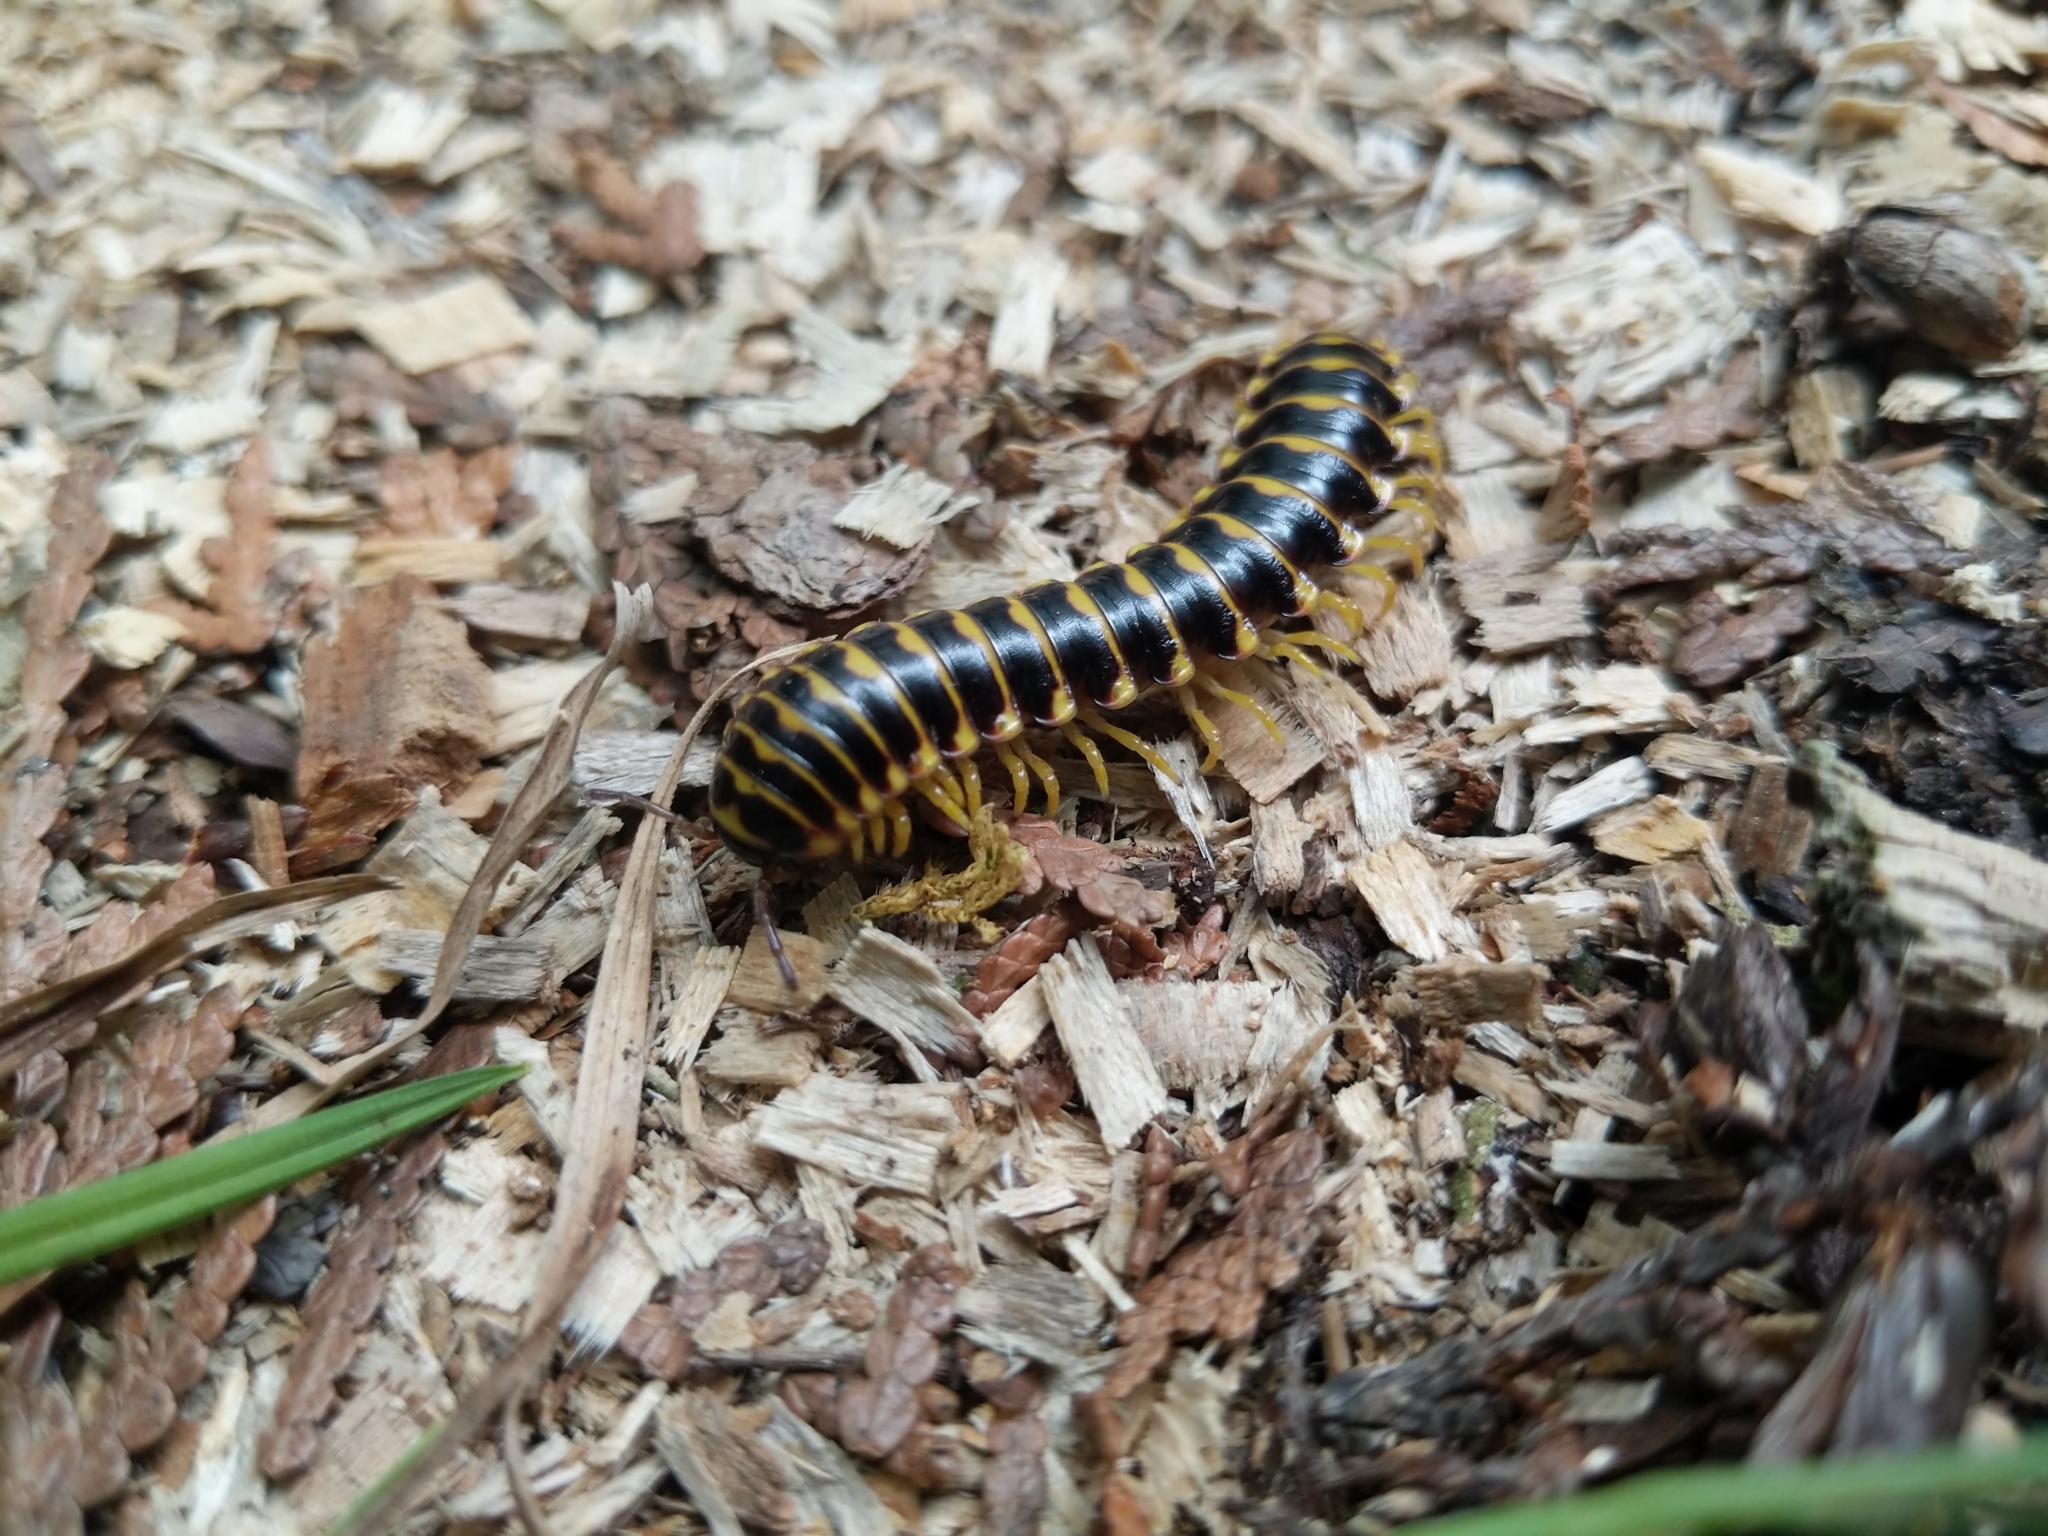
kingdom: Animalia
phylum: Arthropoda
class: Diplopoda
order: Polydesmida
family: Xystodesmidae
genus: Rudiloria
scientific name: Rudiloria trimaculata
